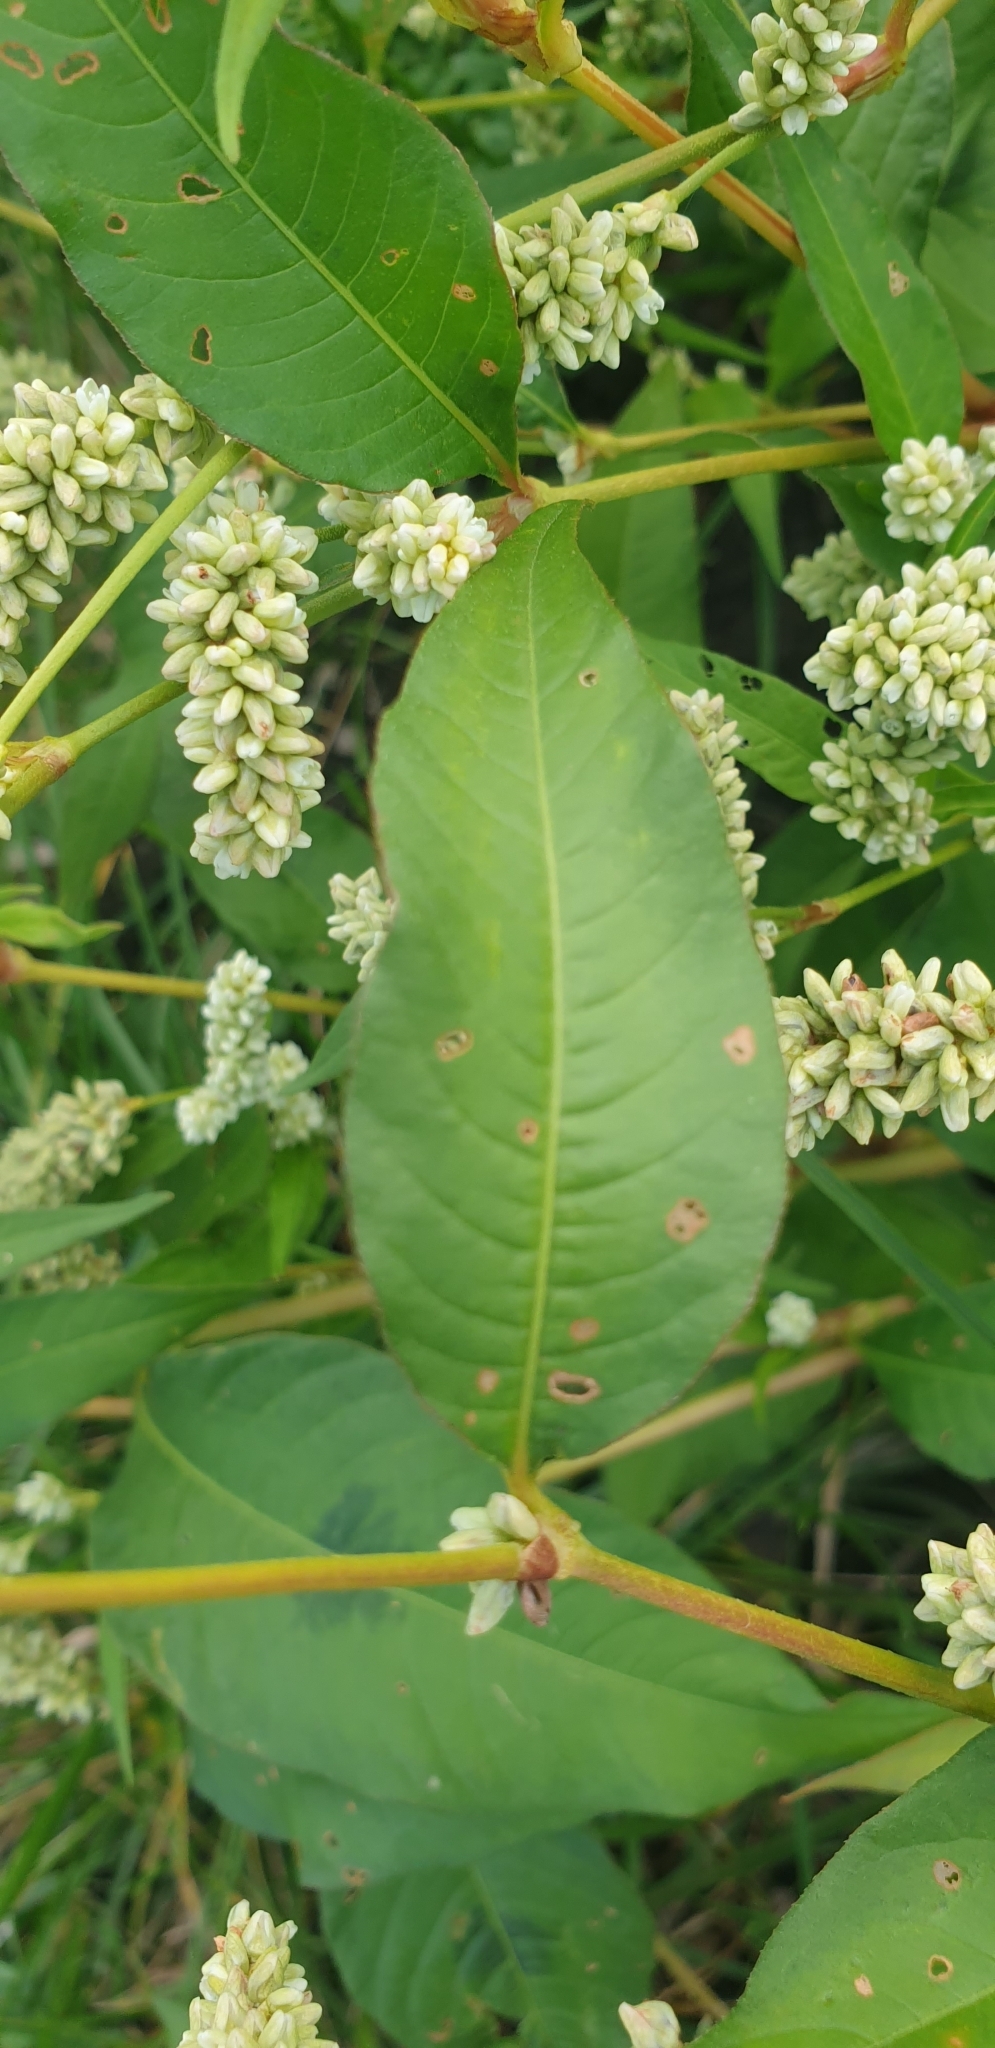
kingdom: Plantae
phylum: Tracheophyta
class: Magnoliopsida
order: Caryophyllales
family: Polygonaceae
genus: Persicaria
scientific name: Persicaria lapathifolia
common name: Curlytop knotweed
